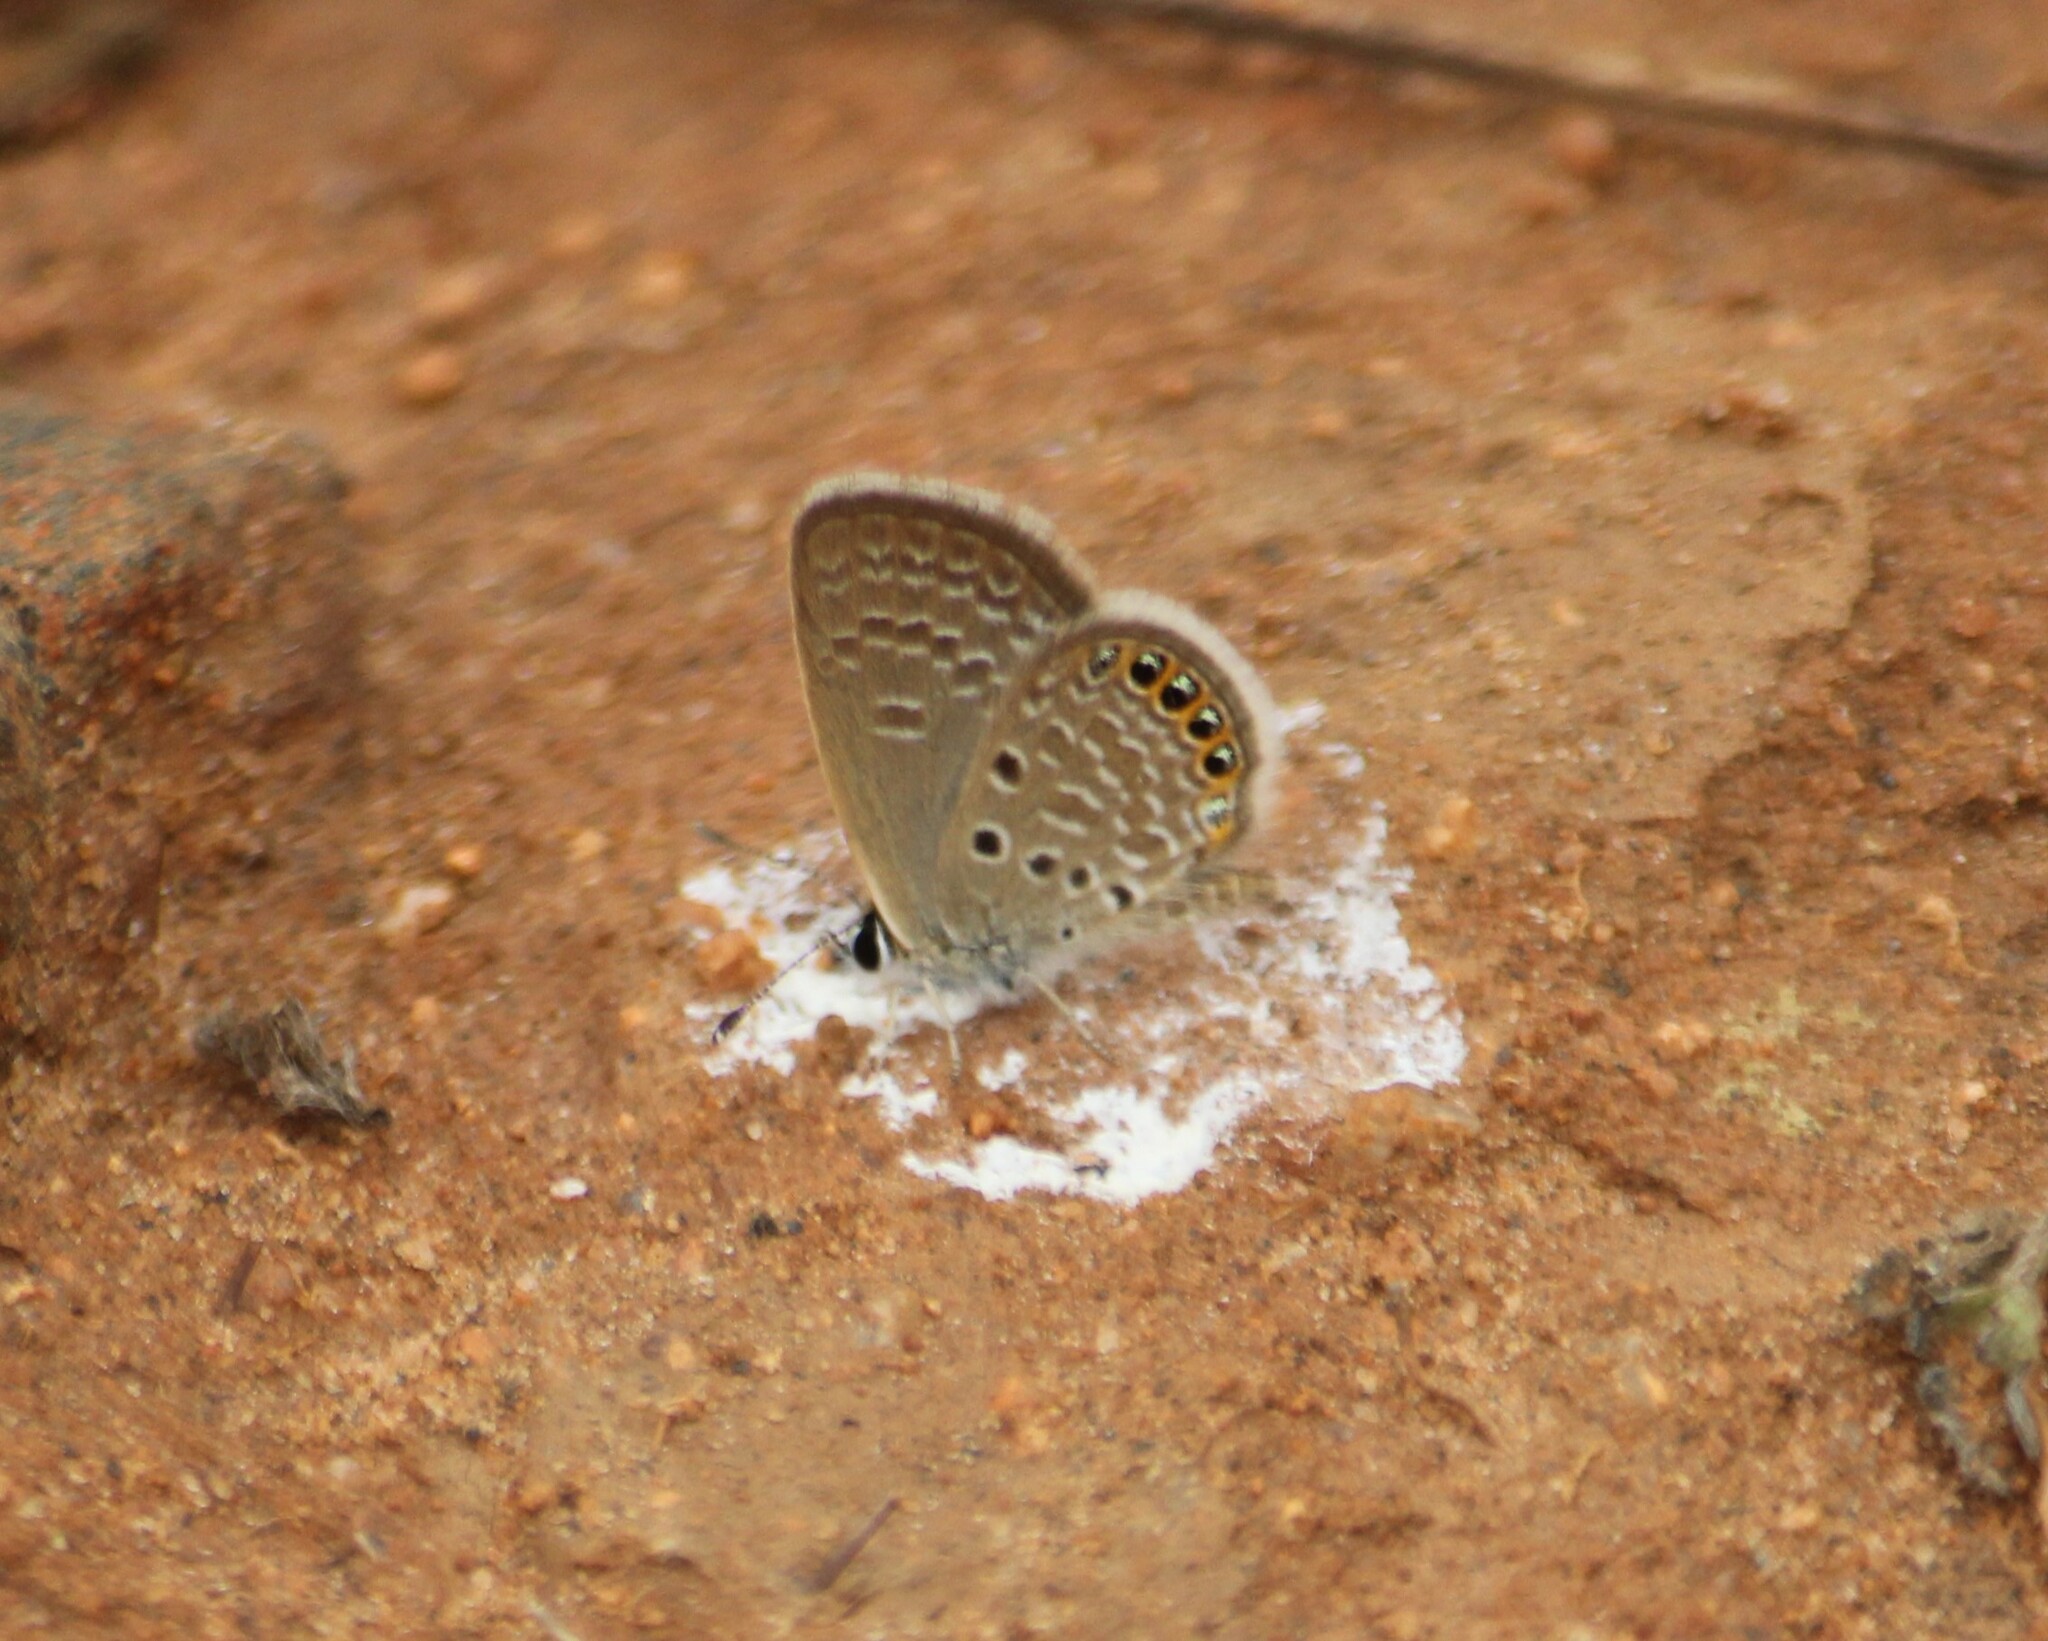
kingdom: Animalia
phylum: Arthropoda
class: Insecta
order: Lepidoptera
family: Lycaenidae
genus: Freyeria
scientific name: Freyeria putli
